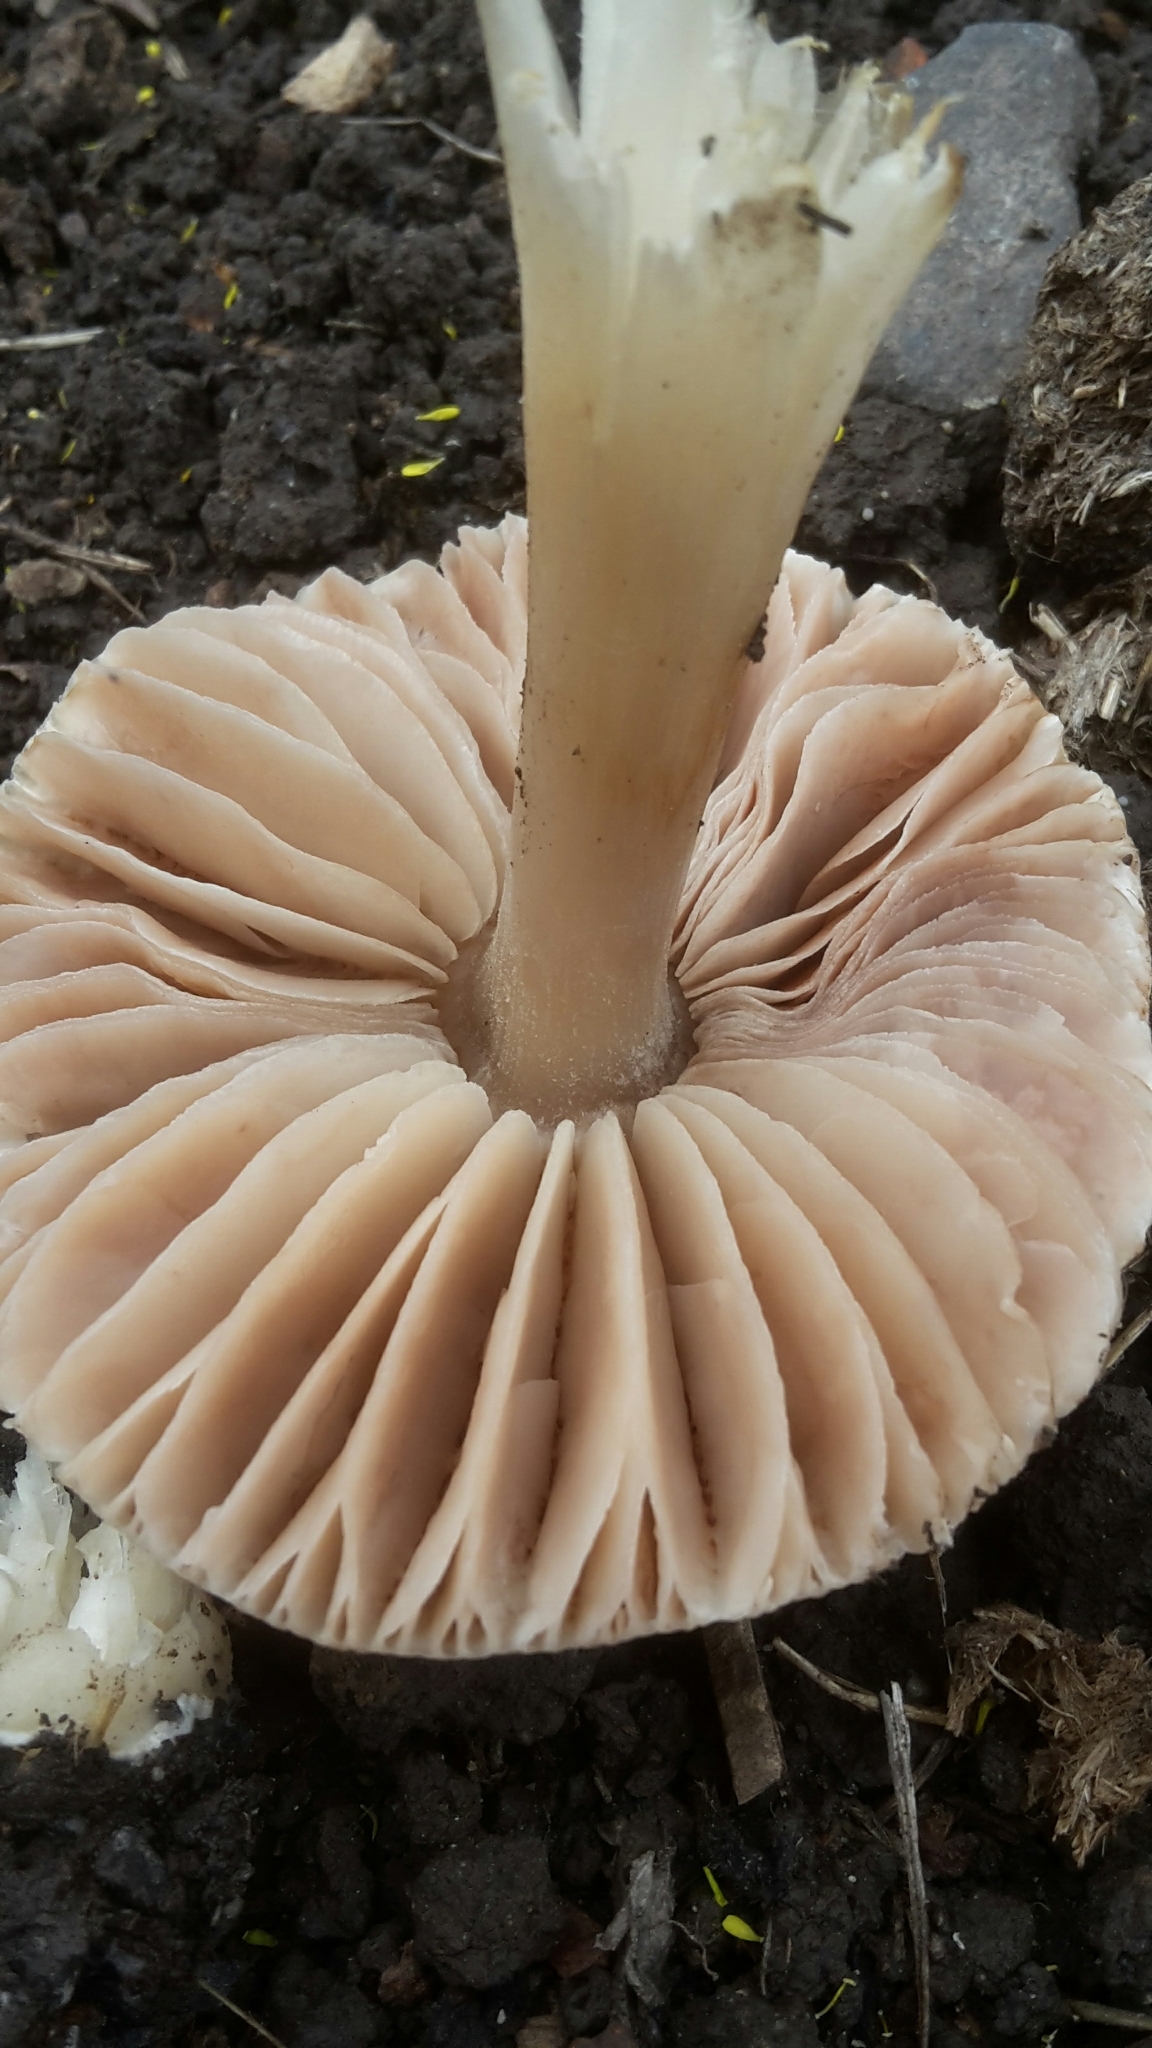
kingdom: Fungi
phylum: Basidiomycota
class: Agaricomycetes
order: Agaricales
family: Mycenaceae
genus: Mycena
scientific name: Mycena galericulata
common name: Bonnet mycena
